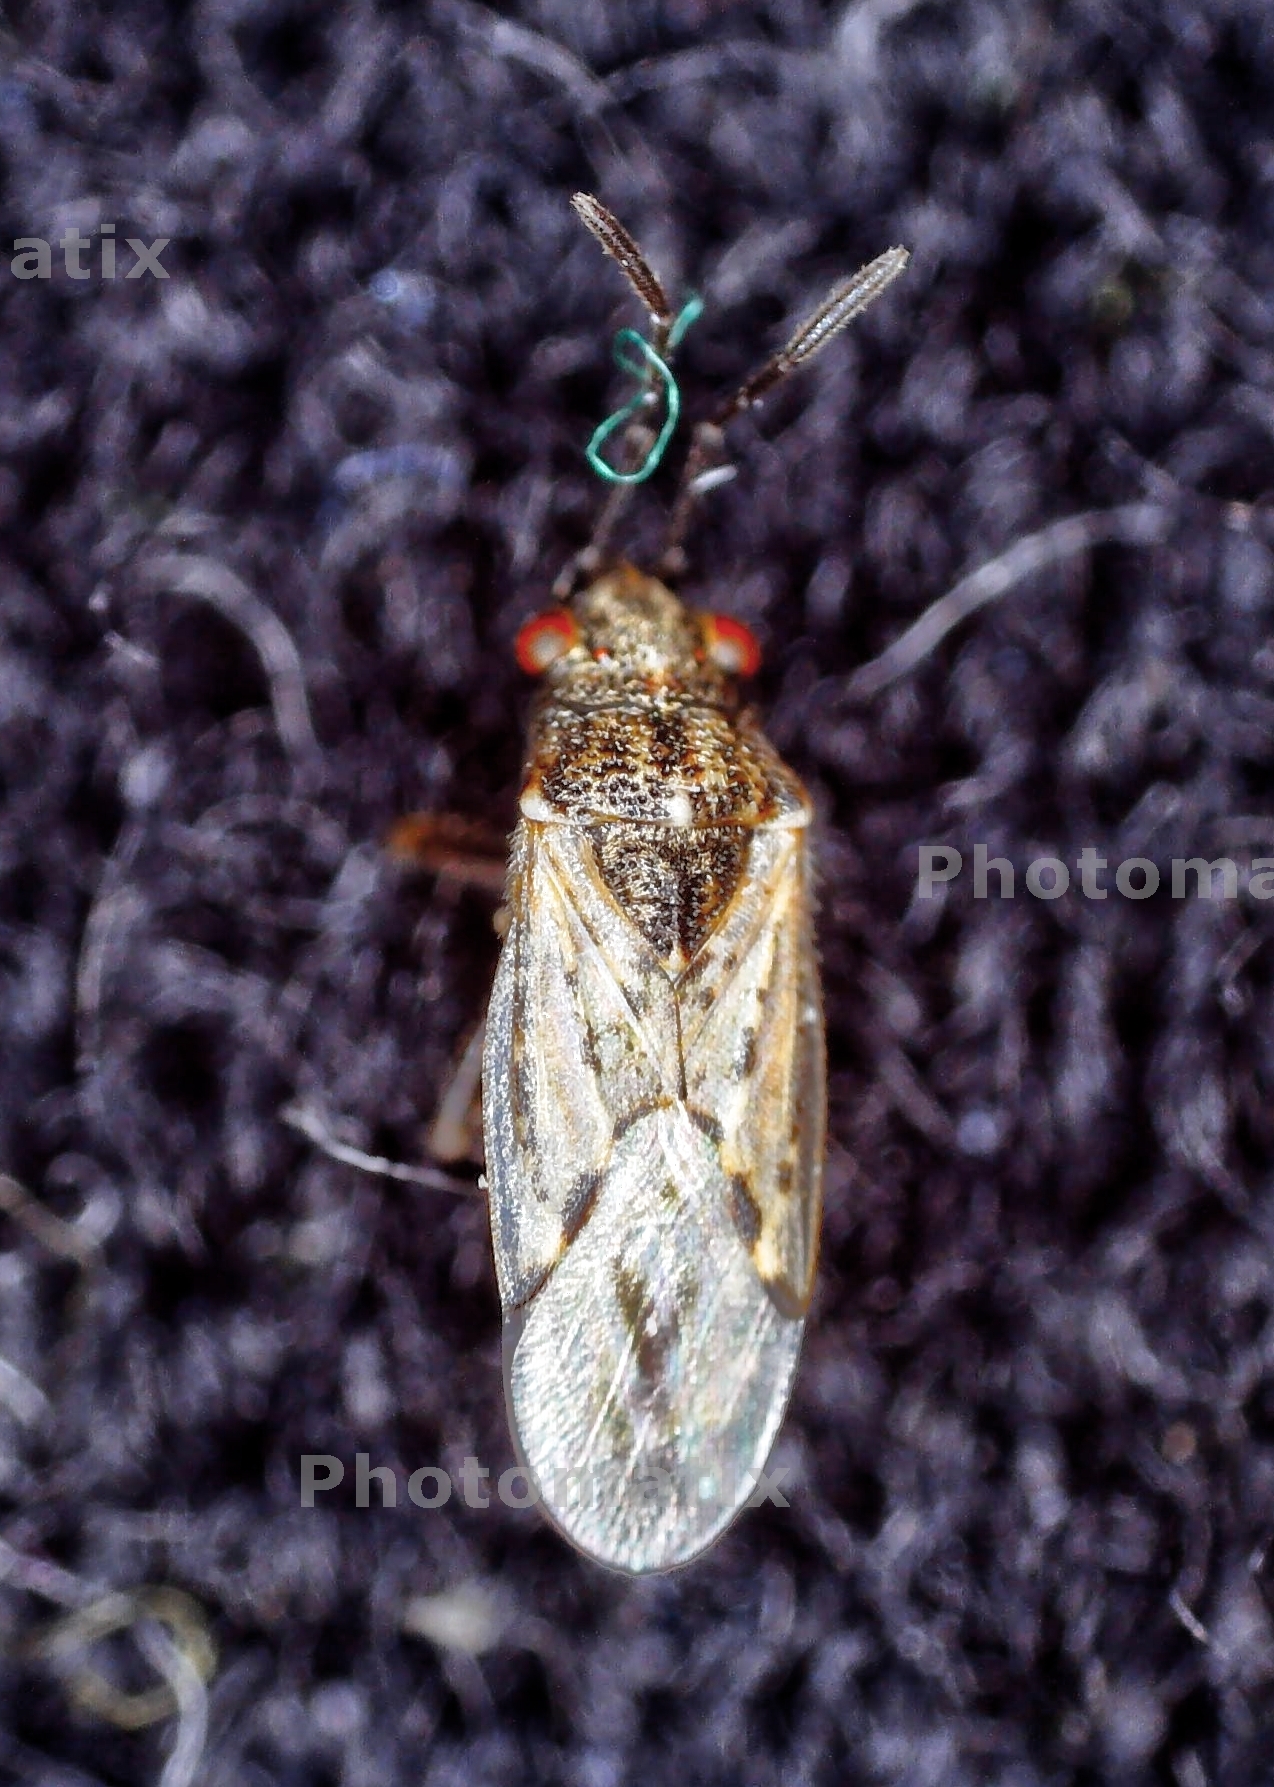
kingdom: Animalia
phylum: Arthropoda
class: Insecta
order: Hemiptera
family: Lygaeidae
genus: Nysius
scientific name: Nysius ericae
